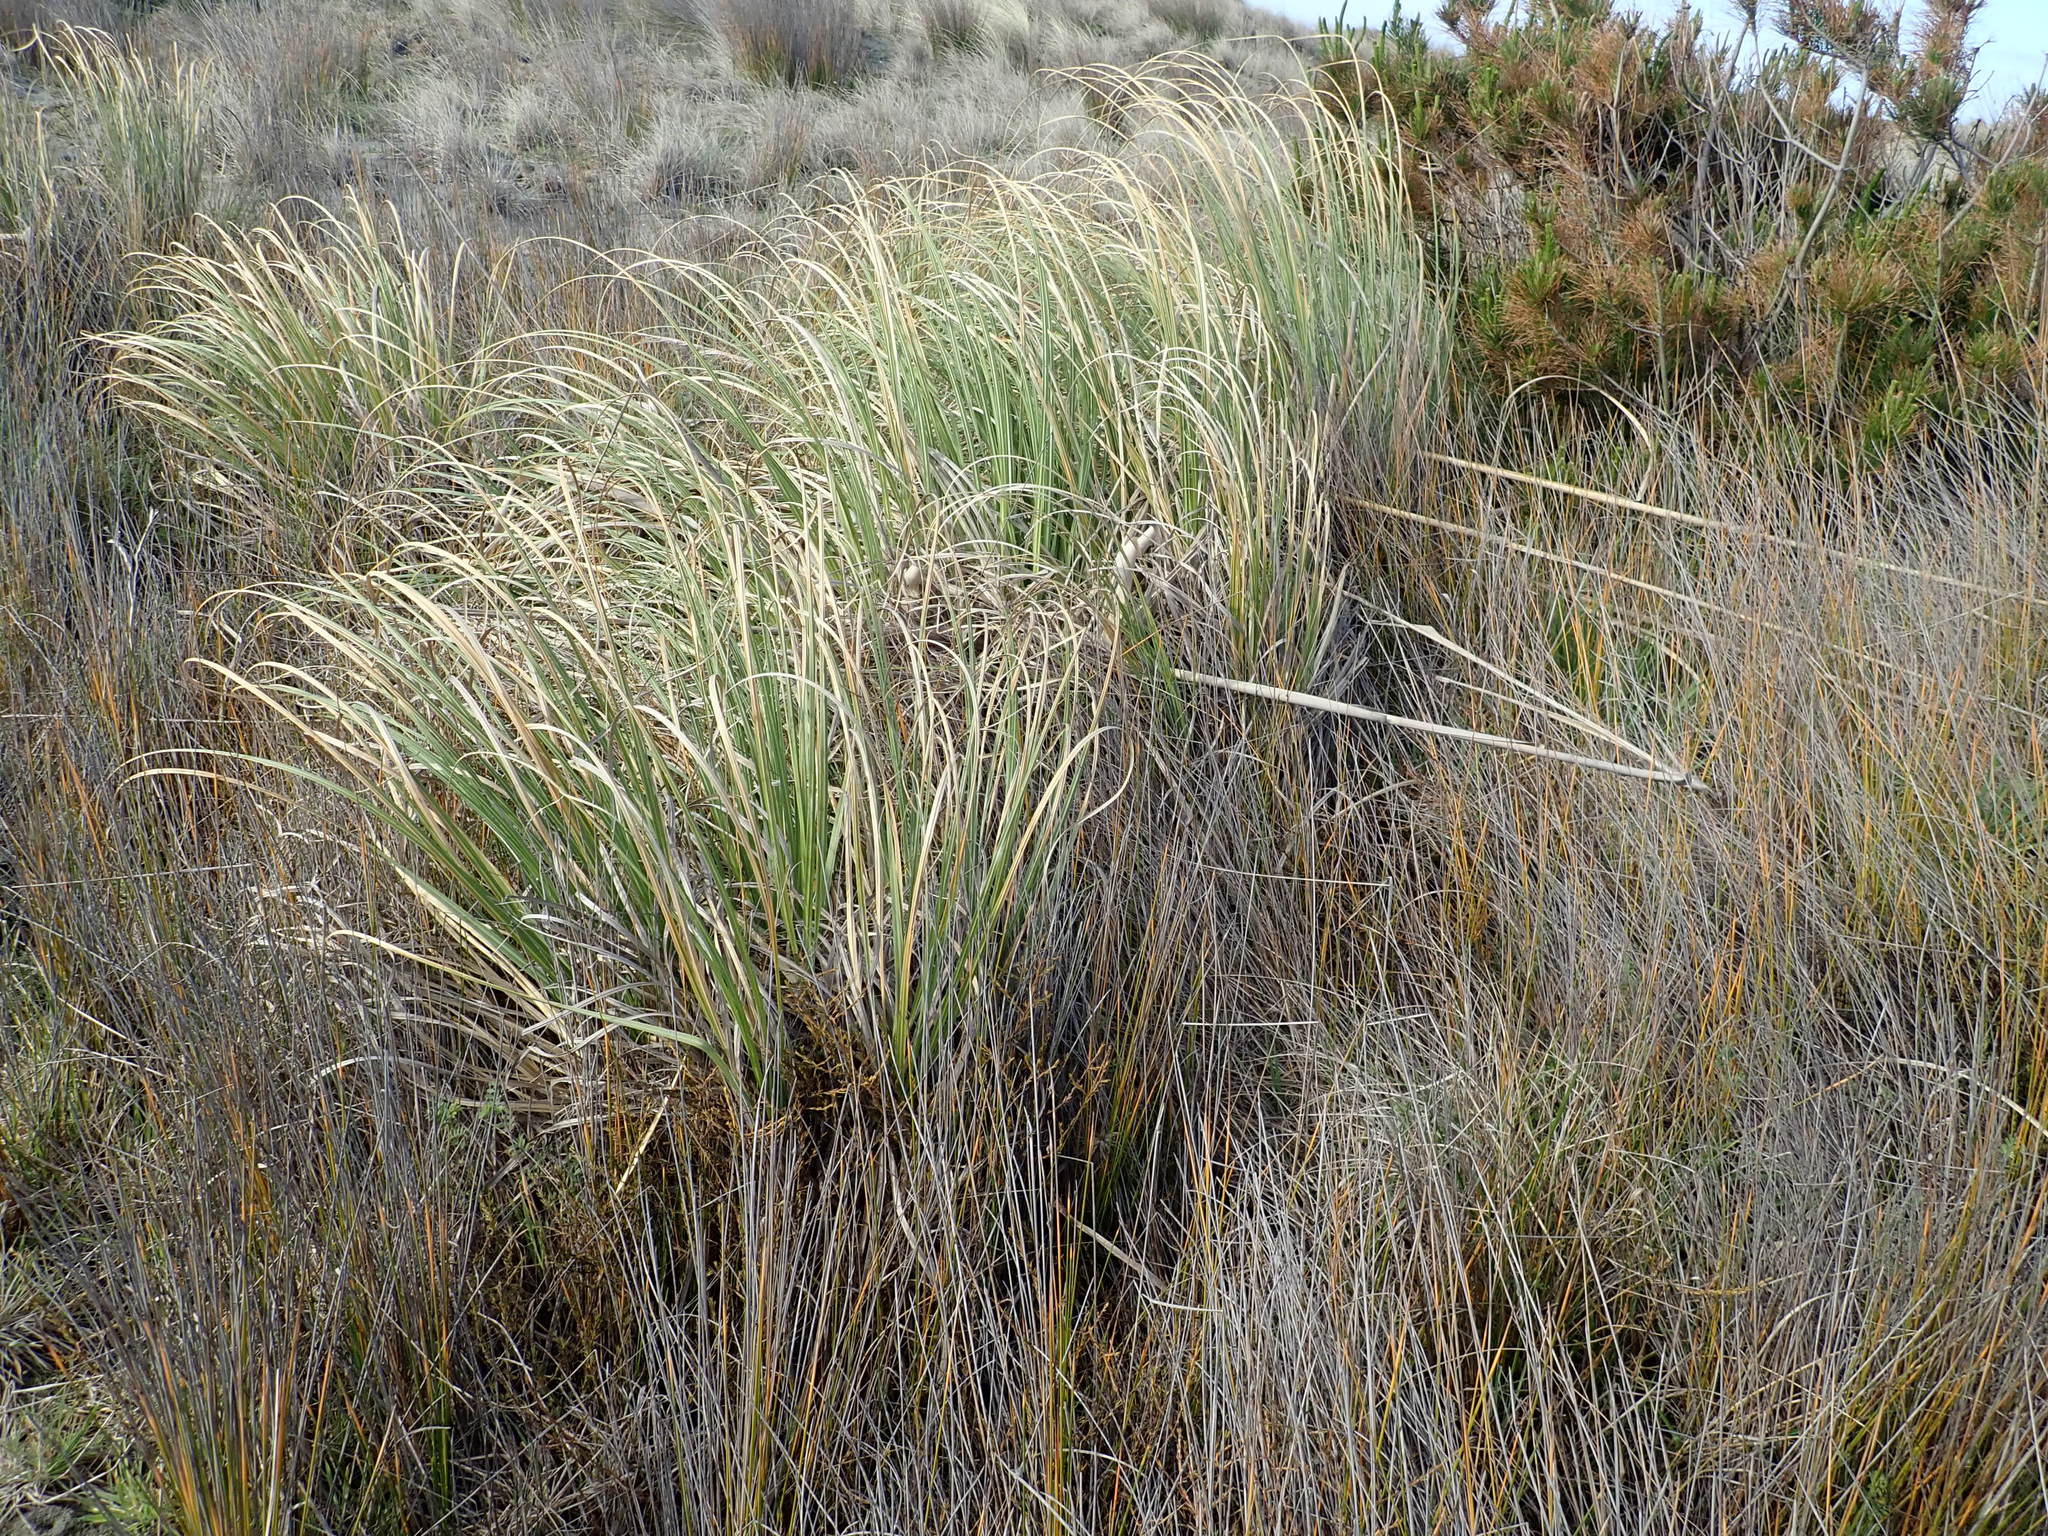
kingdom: Plantae
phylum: Tracheophyta
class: Liliopsida
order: Poales
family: Poaceae
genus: Cortaderia
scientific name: Cortaderia selloana
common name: Uruguayan pampas grass
